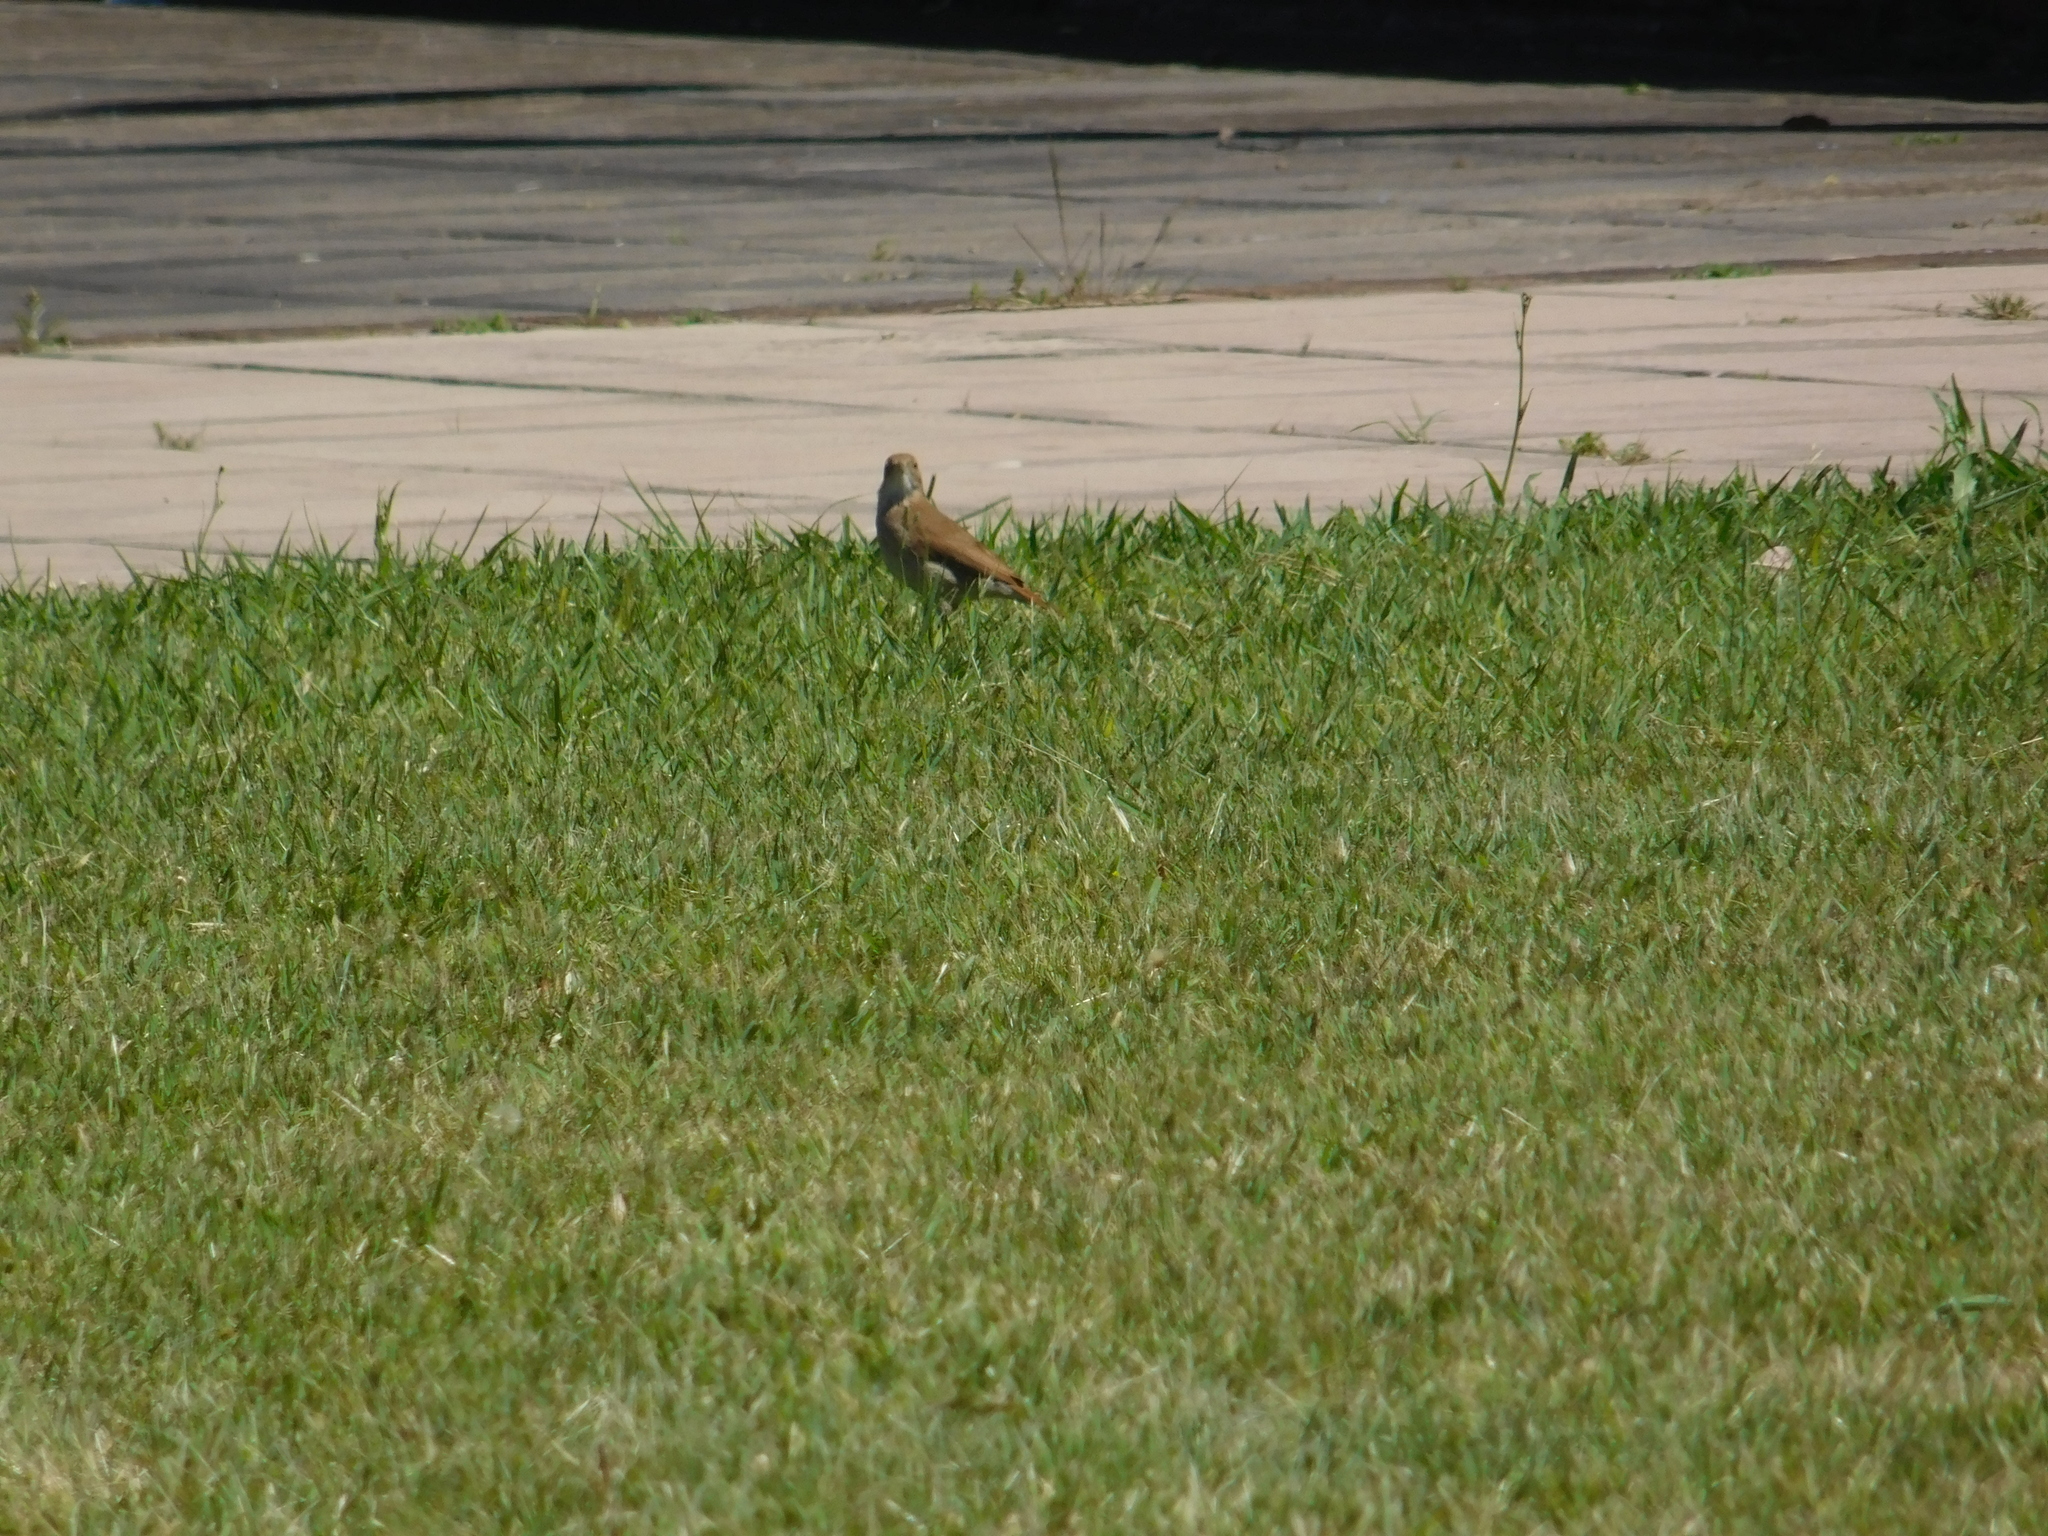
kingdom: Animalia
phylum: Chordata
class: Aves
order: Passeriformes
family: Furnariidae
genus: Furnarius
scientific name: Furnarius rufus
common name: Rufous hornero
